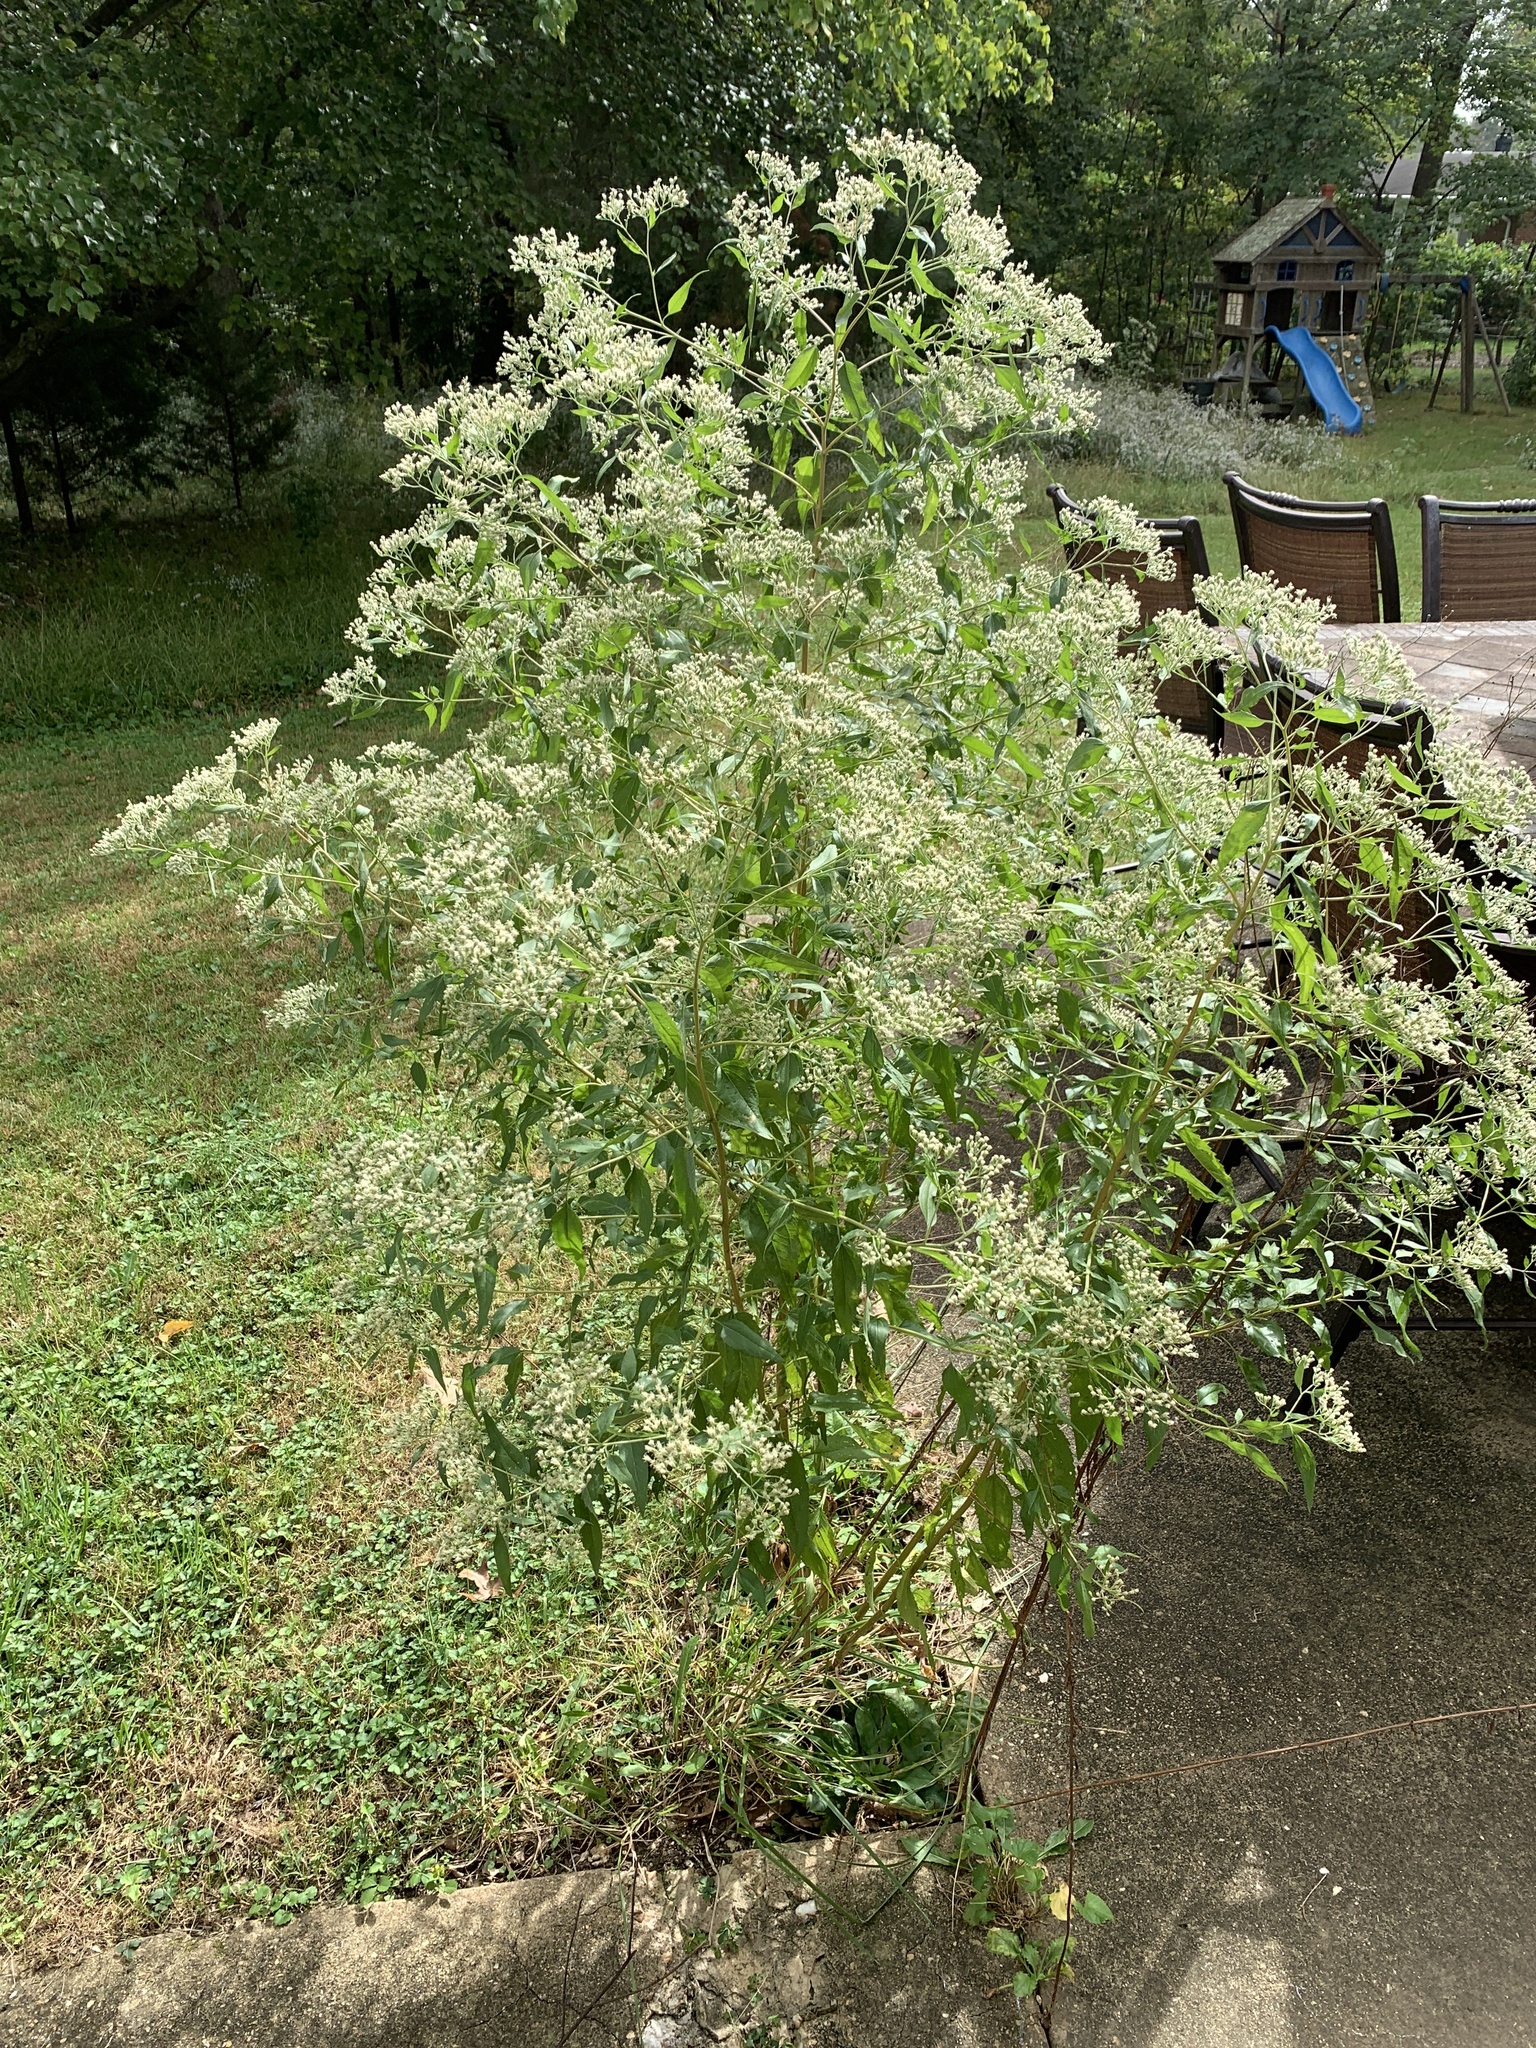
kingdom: Plantae
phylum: Tracheophyta
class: Magnoliopsida
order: Asterales
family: Asteraceae
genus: Eupatorium
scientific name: Eupatorium serotinum
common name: Late boneset
